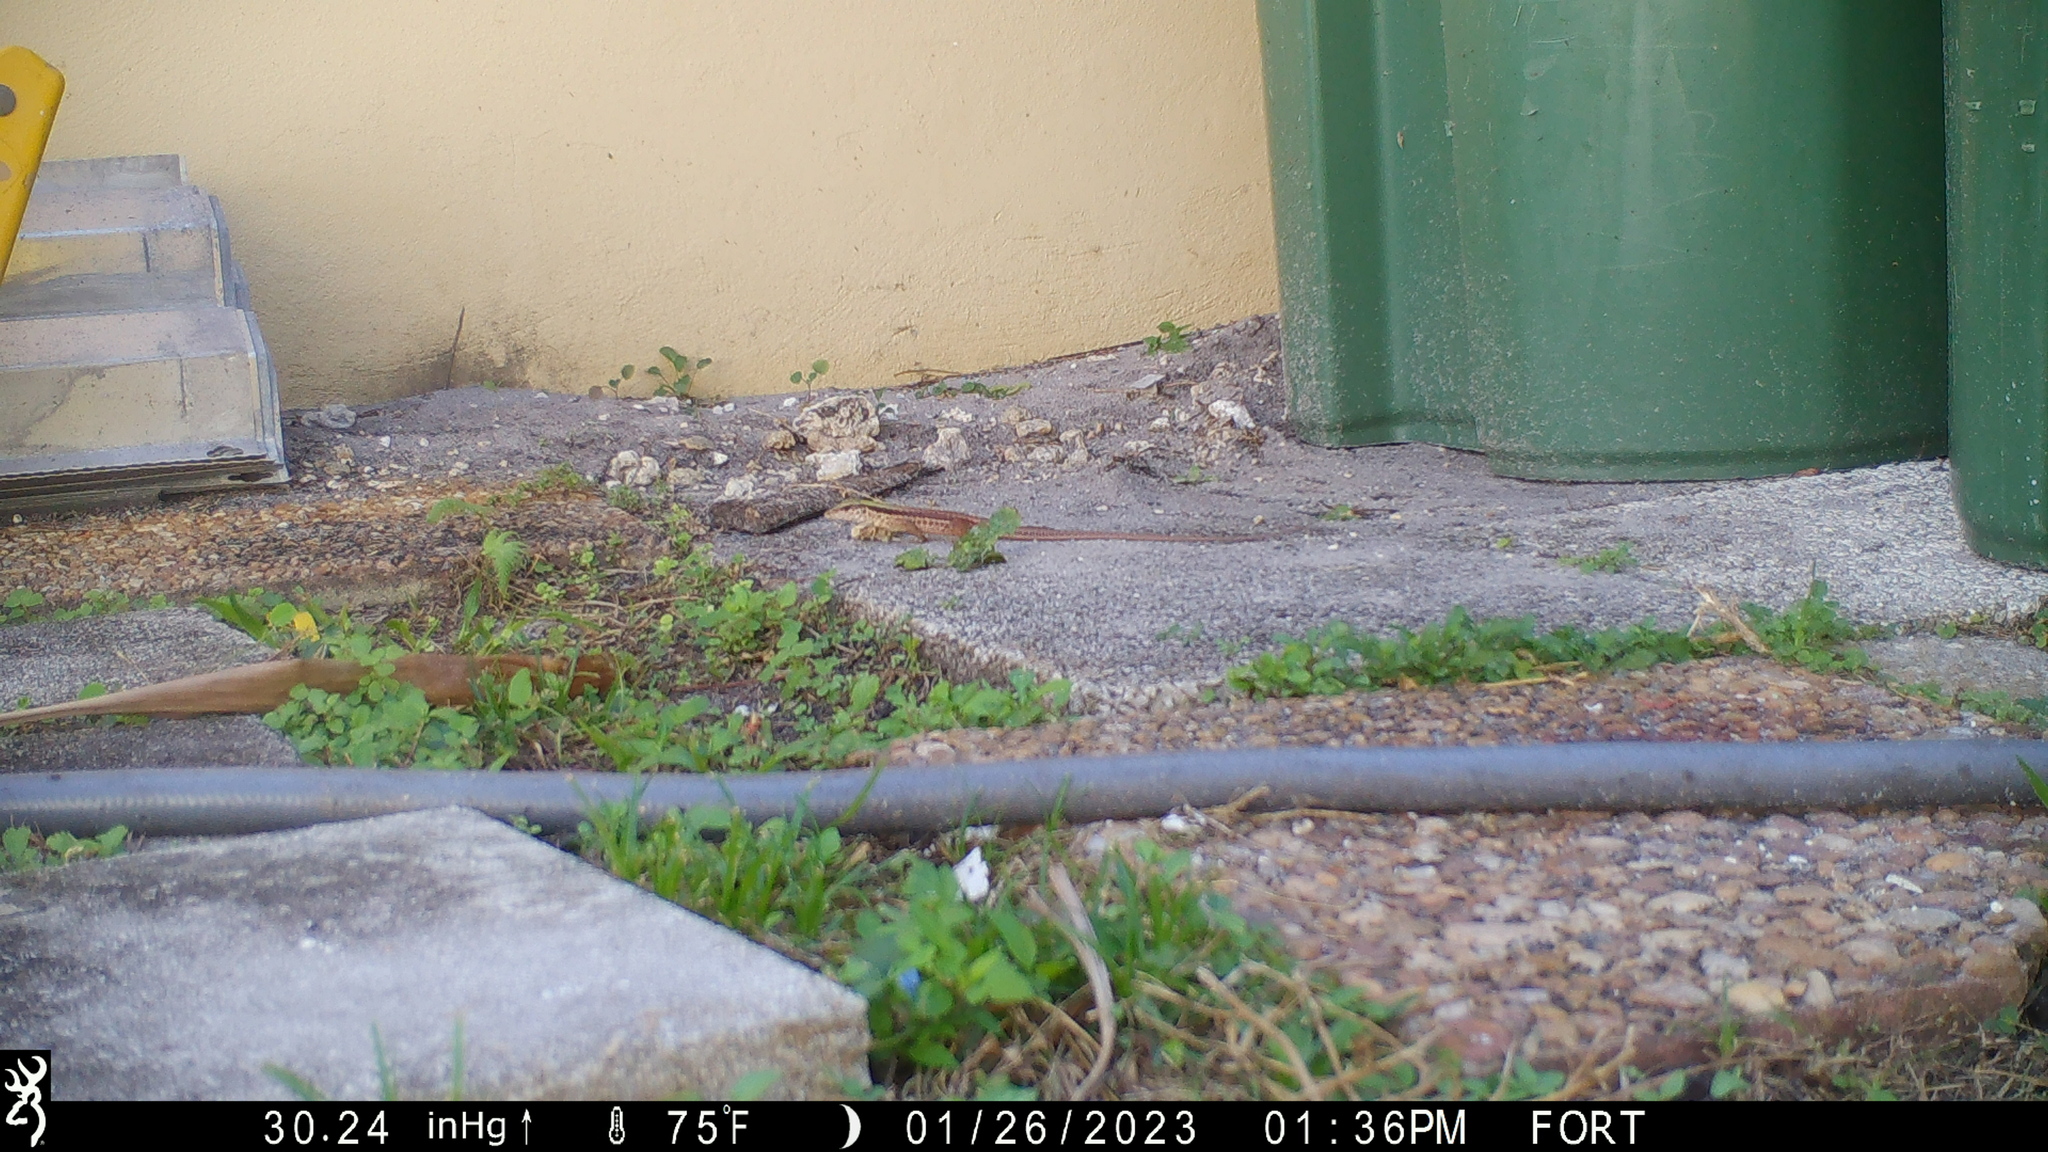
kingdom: Animalia
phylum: Chordata
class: Squamata
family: Teiidae
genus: Ameiva
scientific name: Ameiva ameiva
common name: Giant ameiva
